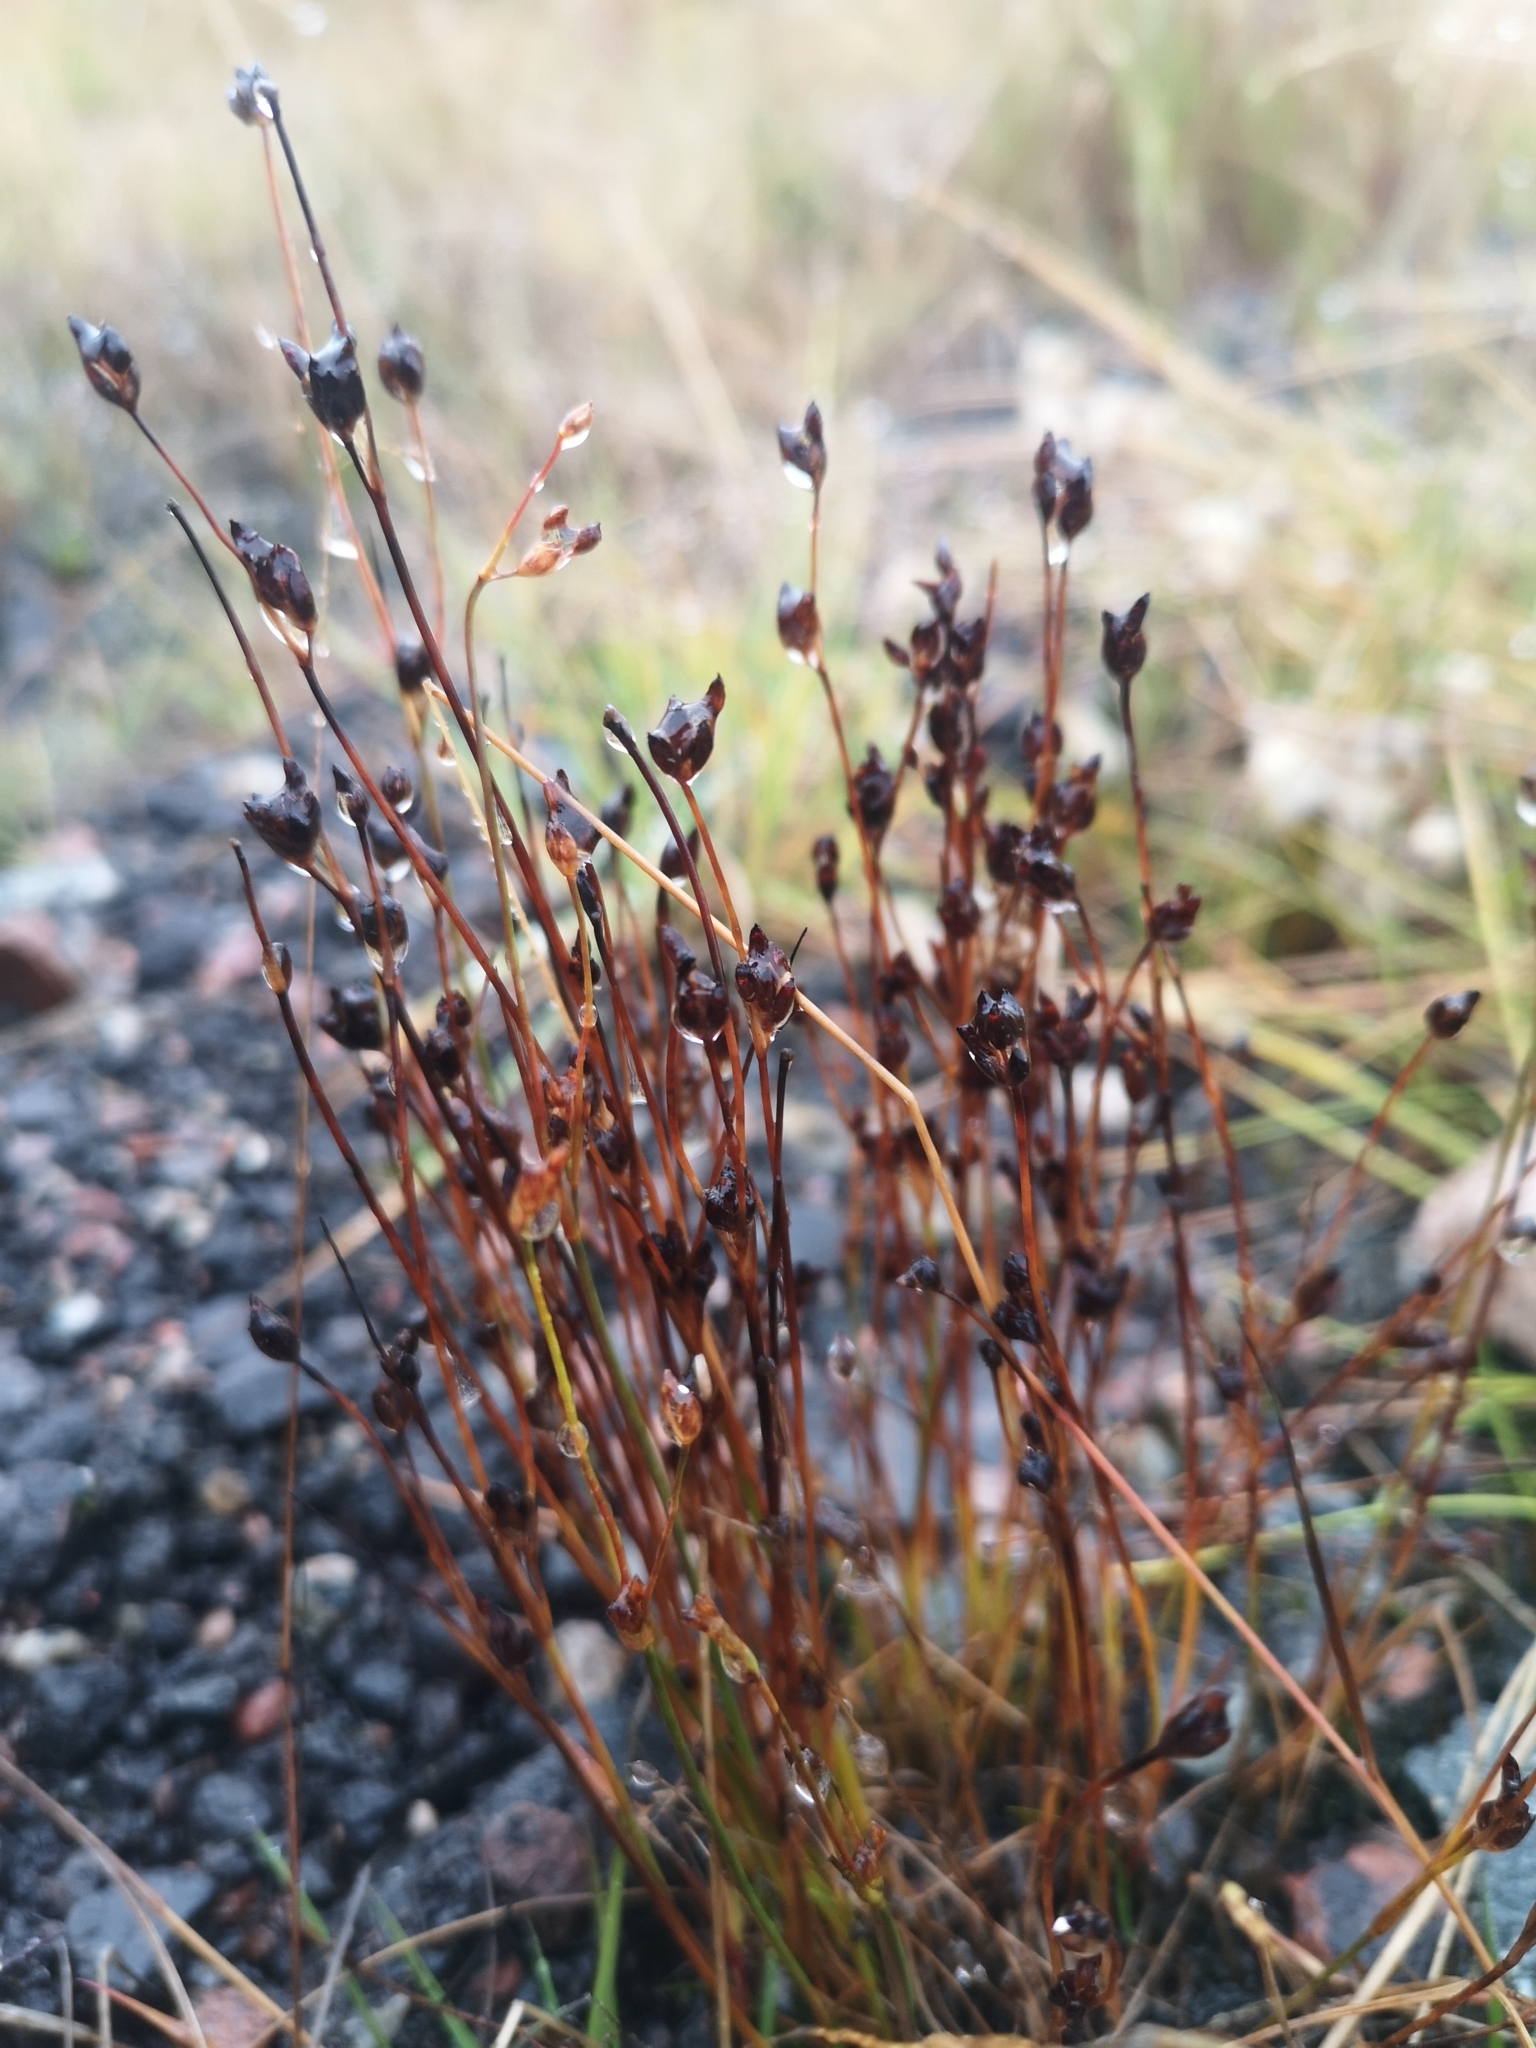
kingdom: Plantae
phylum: Tracheophyta
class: Liliopsida
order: Poales
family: Juncaceae
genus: Juncus
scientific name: Juncus alpinoarticulatus
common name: Alpine rush
